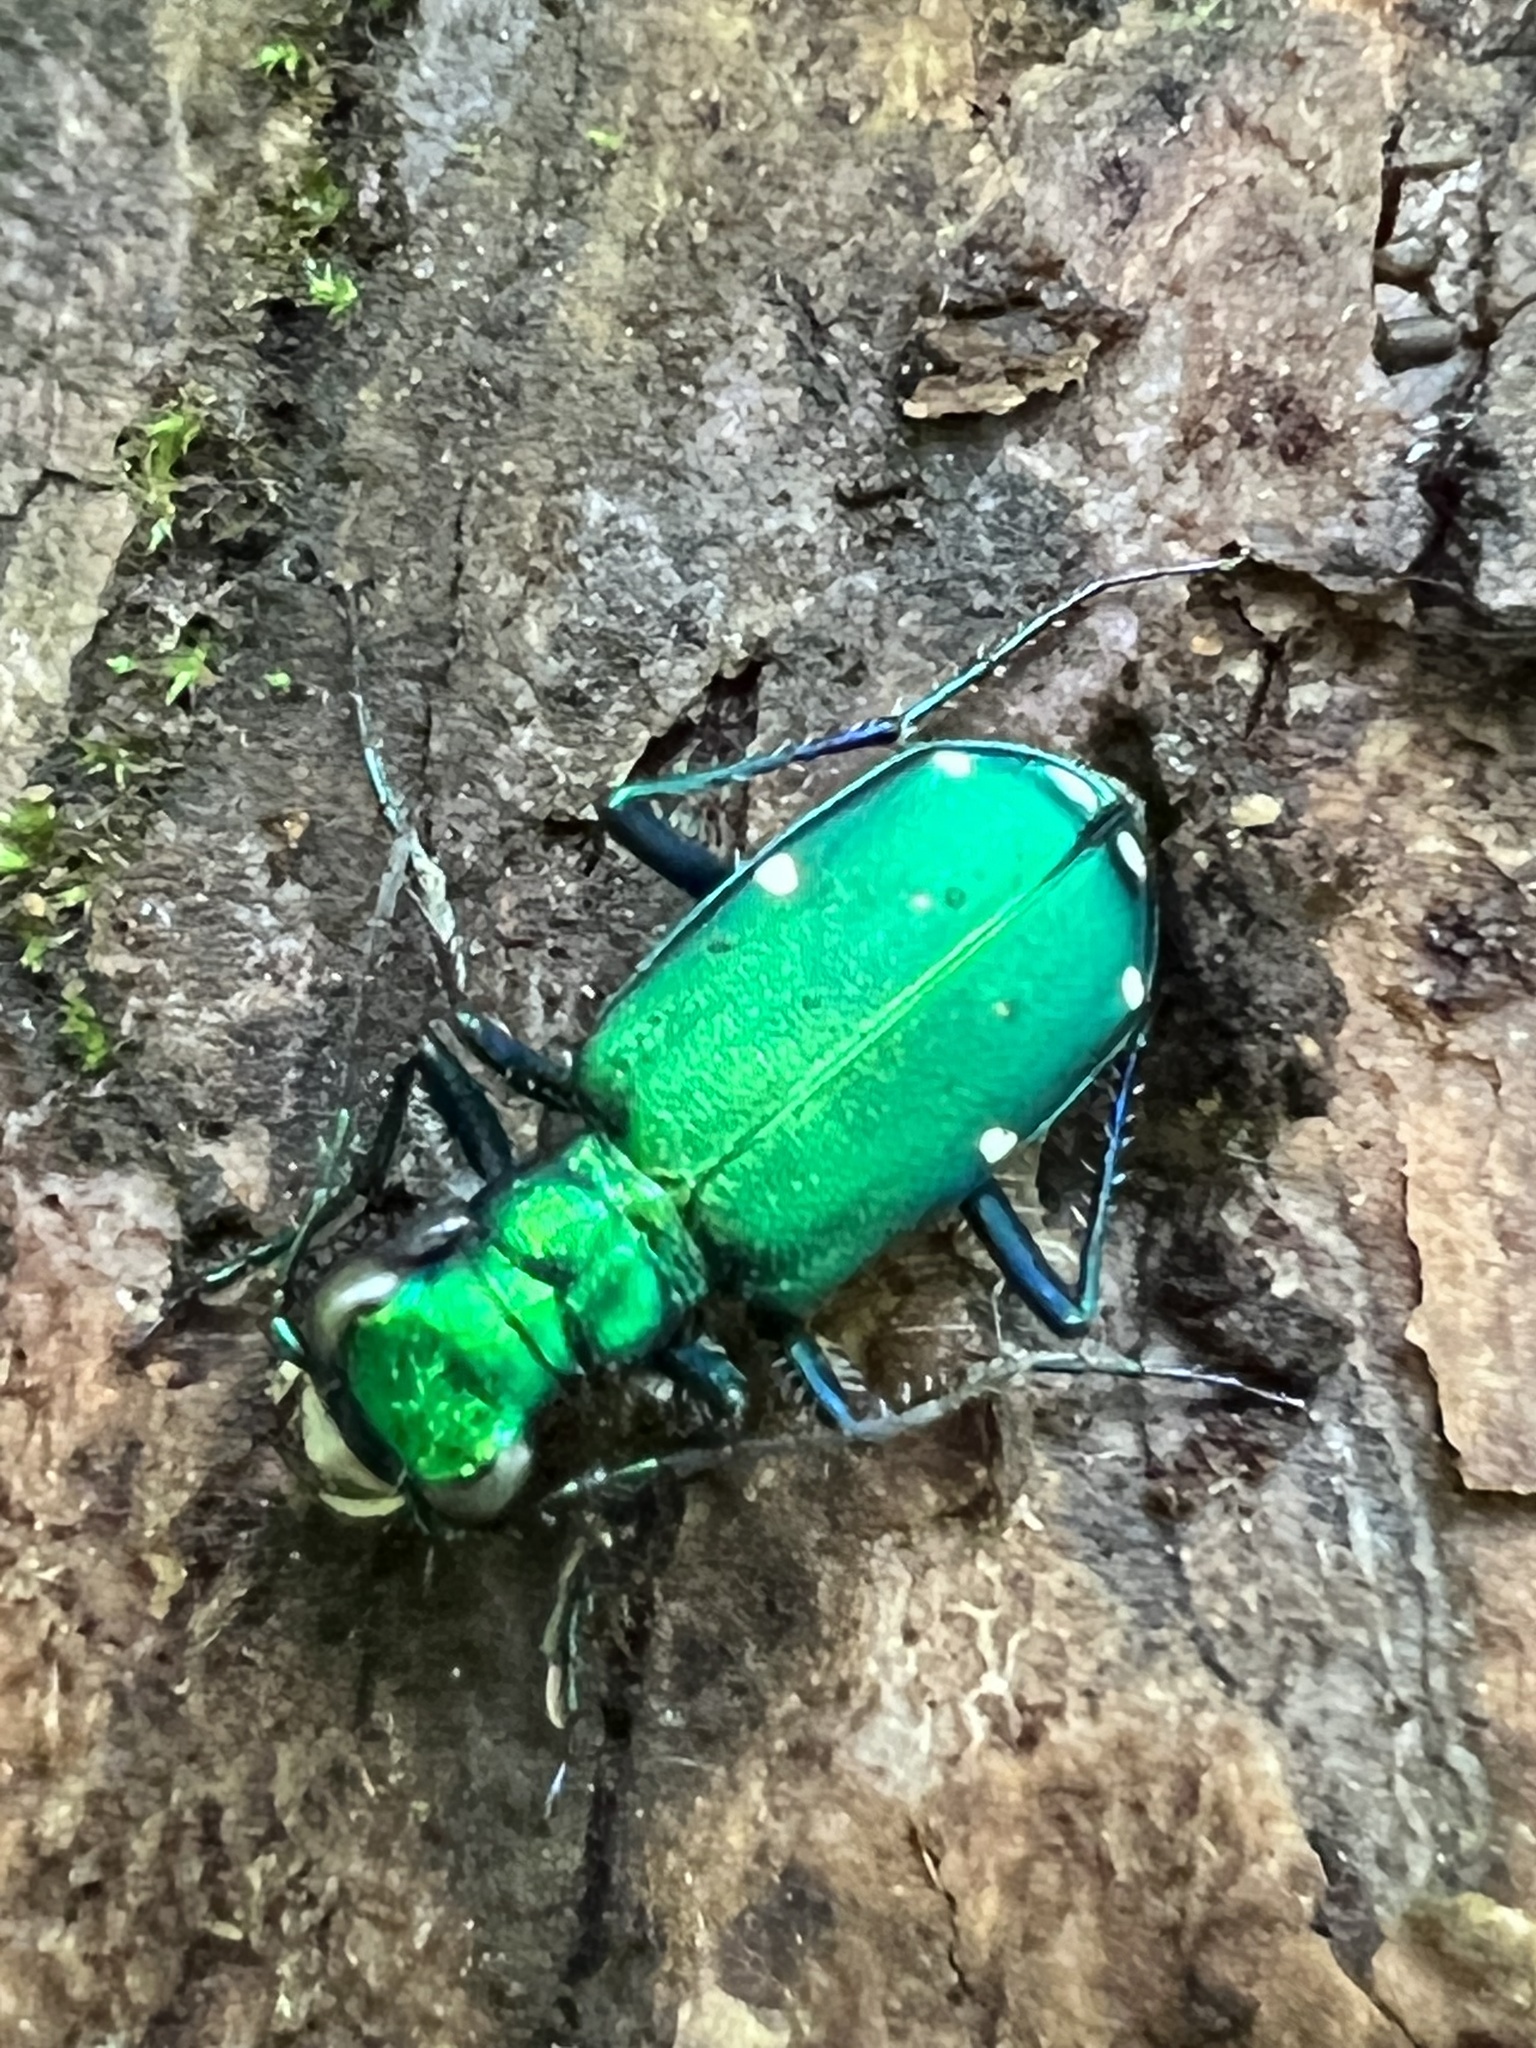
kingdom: Animalia
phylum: Arthropoda
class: Insecta
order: Coleoptera
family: Carabidae
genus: Cicindela
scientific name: Cicindela sexguttata
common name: Six-spotted tiger beetle
